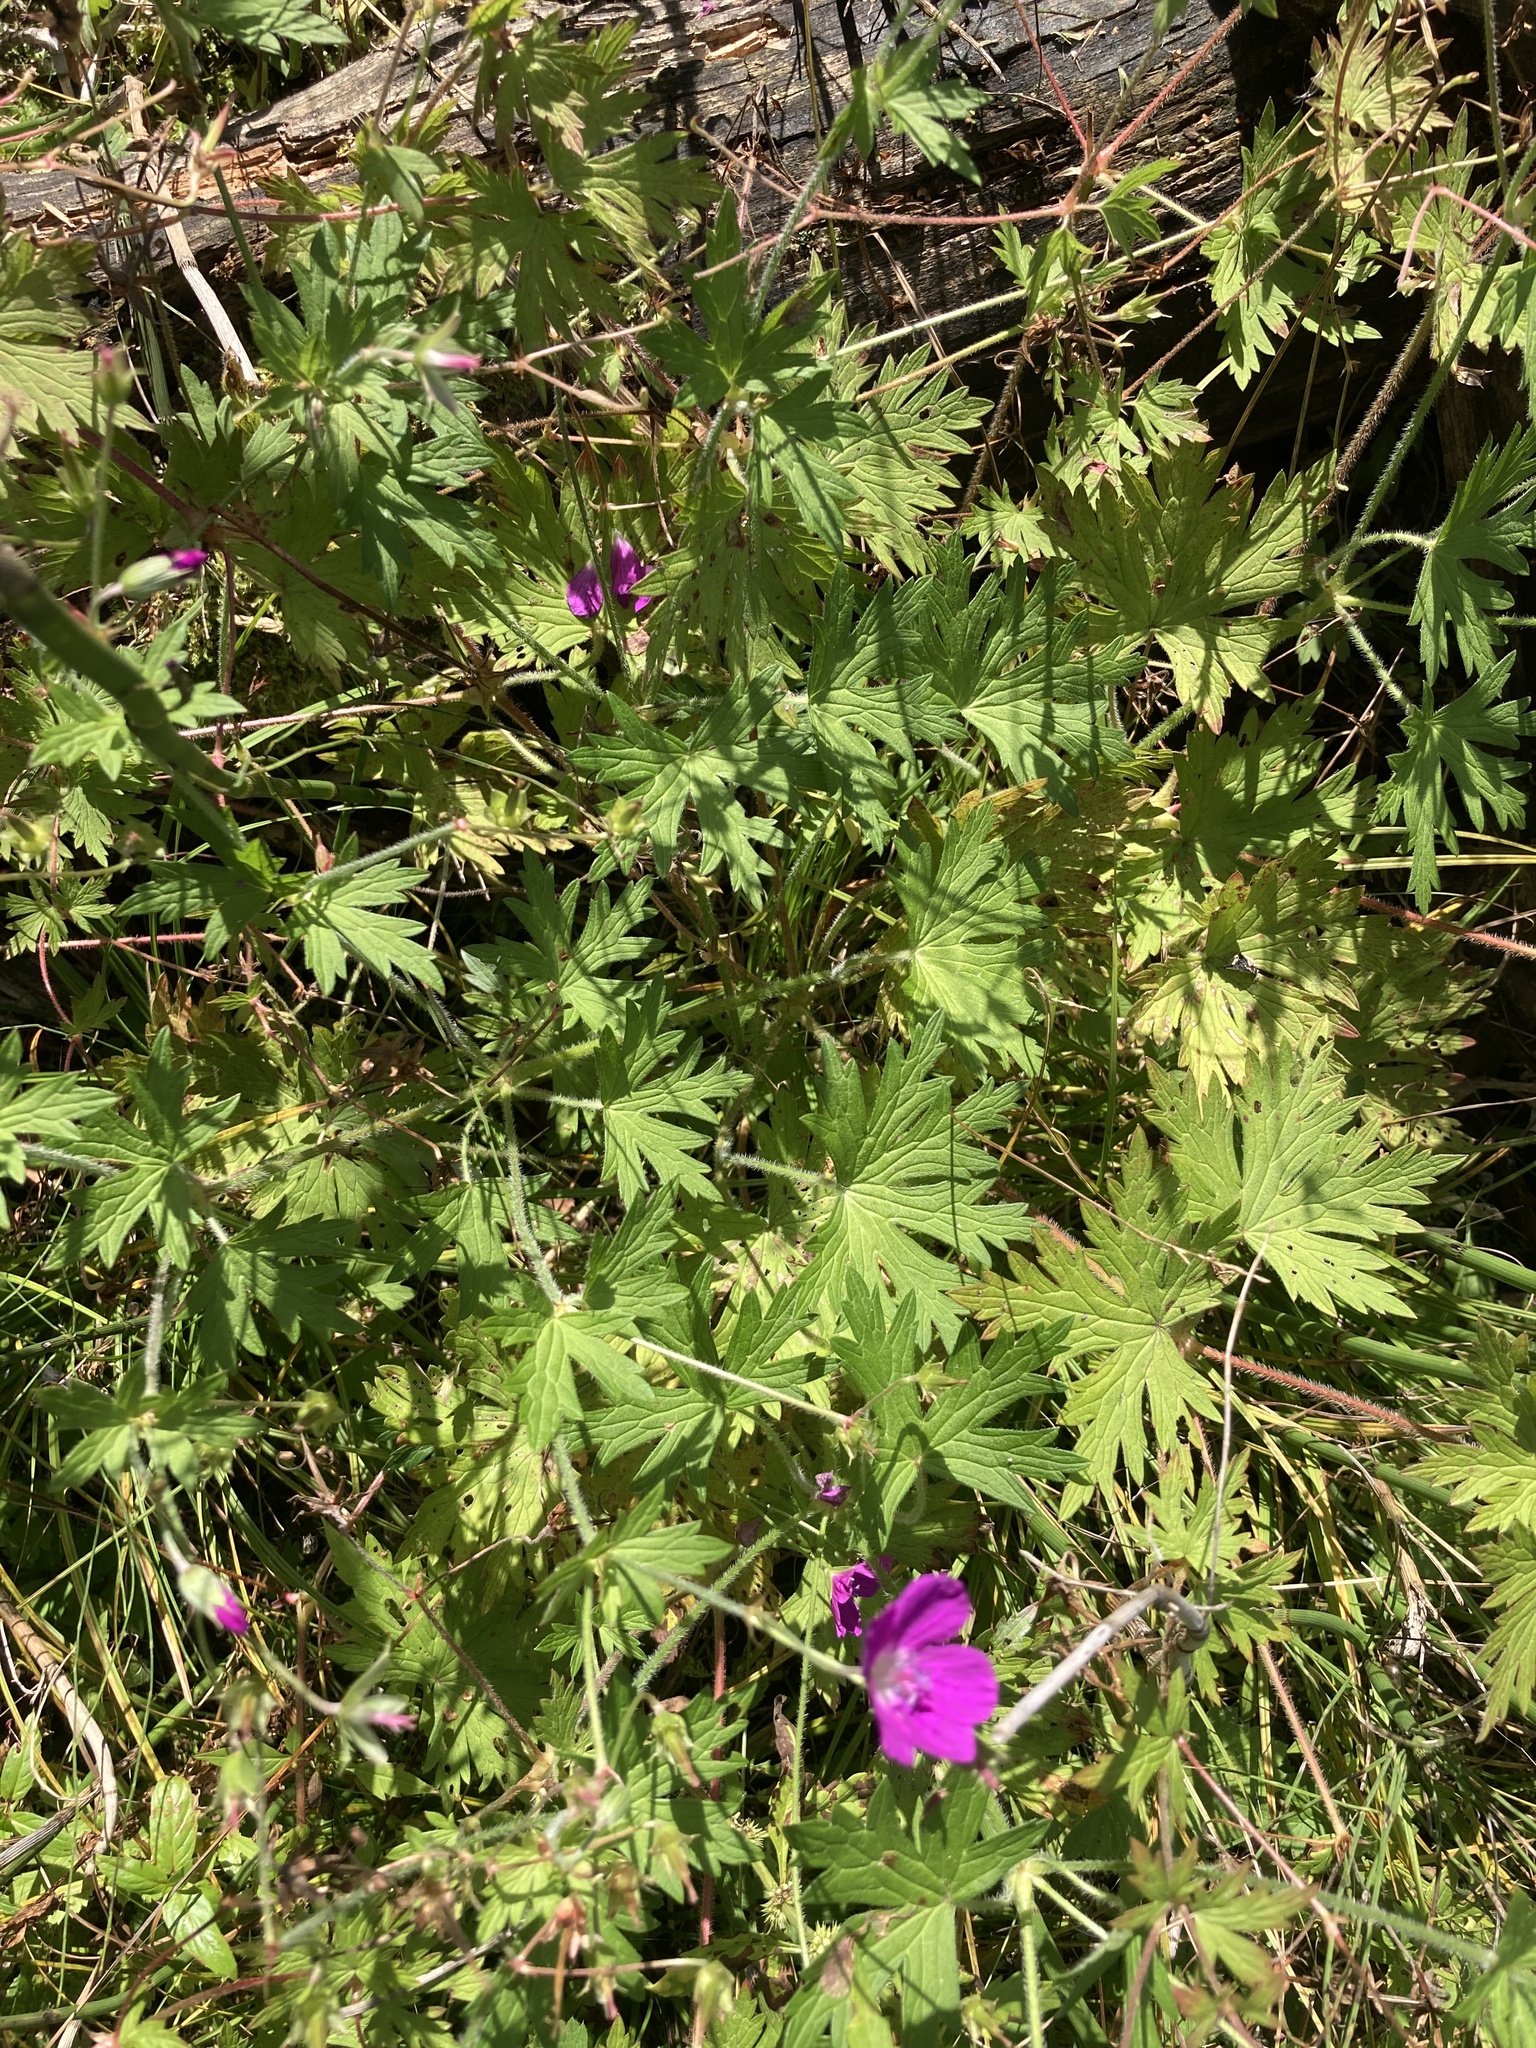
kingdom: Plantae
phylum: Tracheophyta
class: Magnoliopsida
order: Geraniales
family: Geraniaceae
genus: Geranium
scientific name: Geranium palustre
